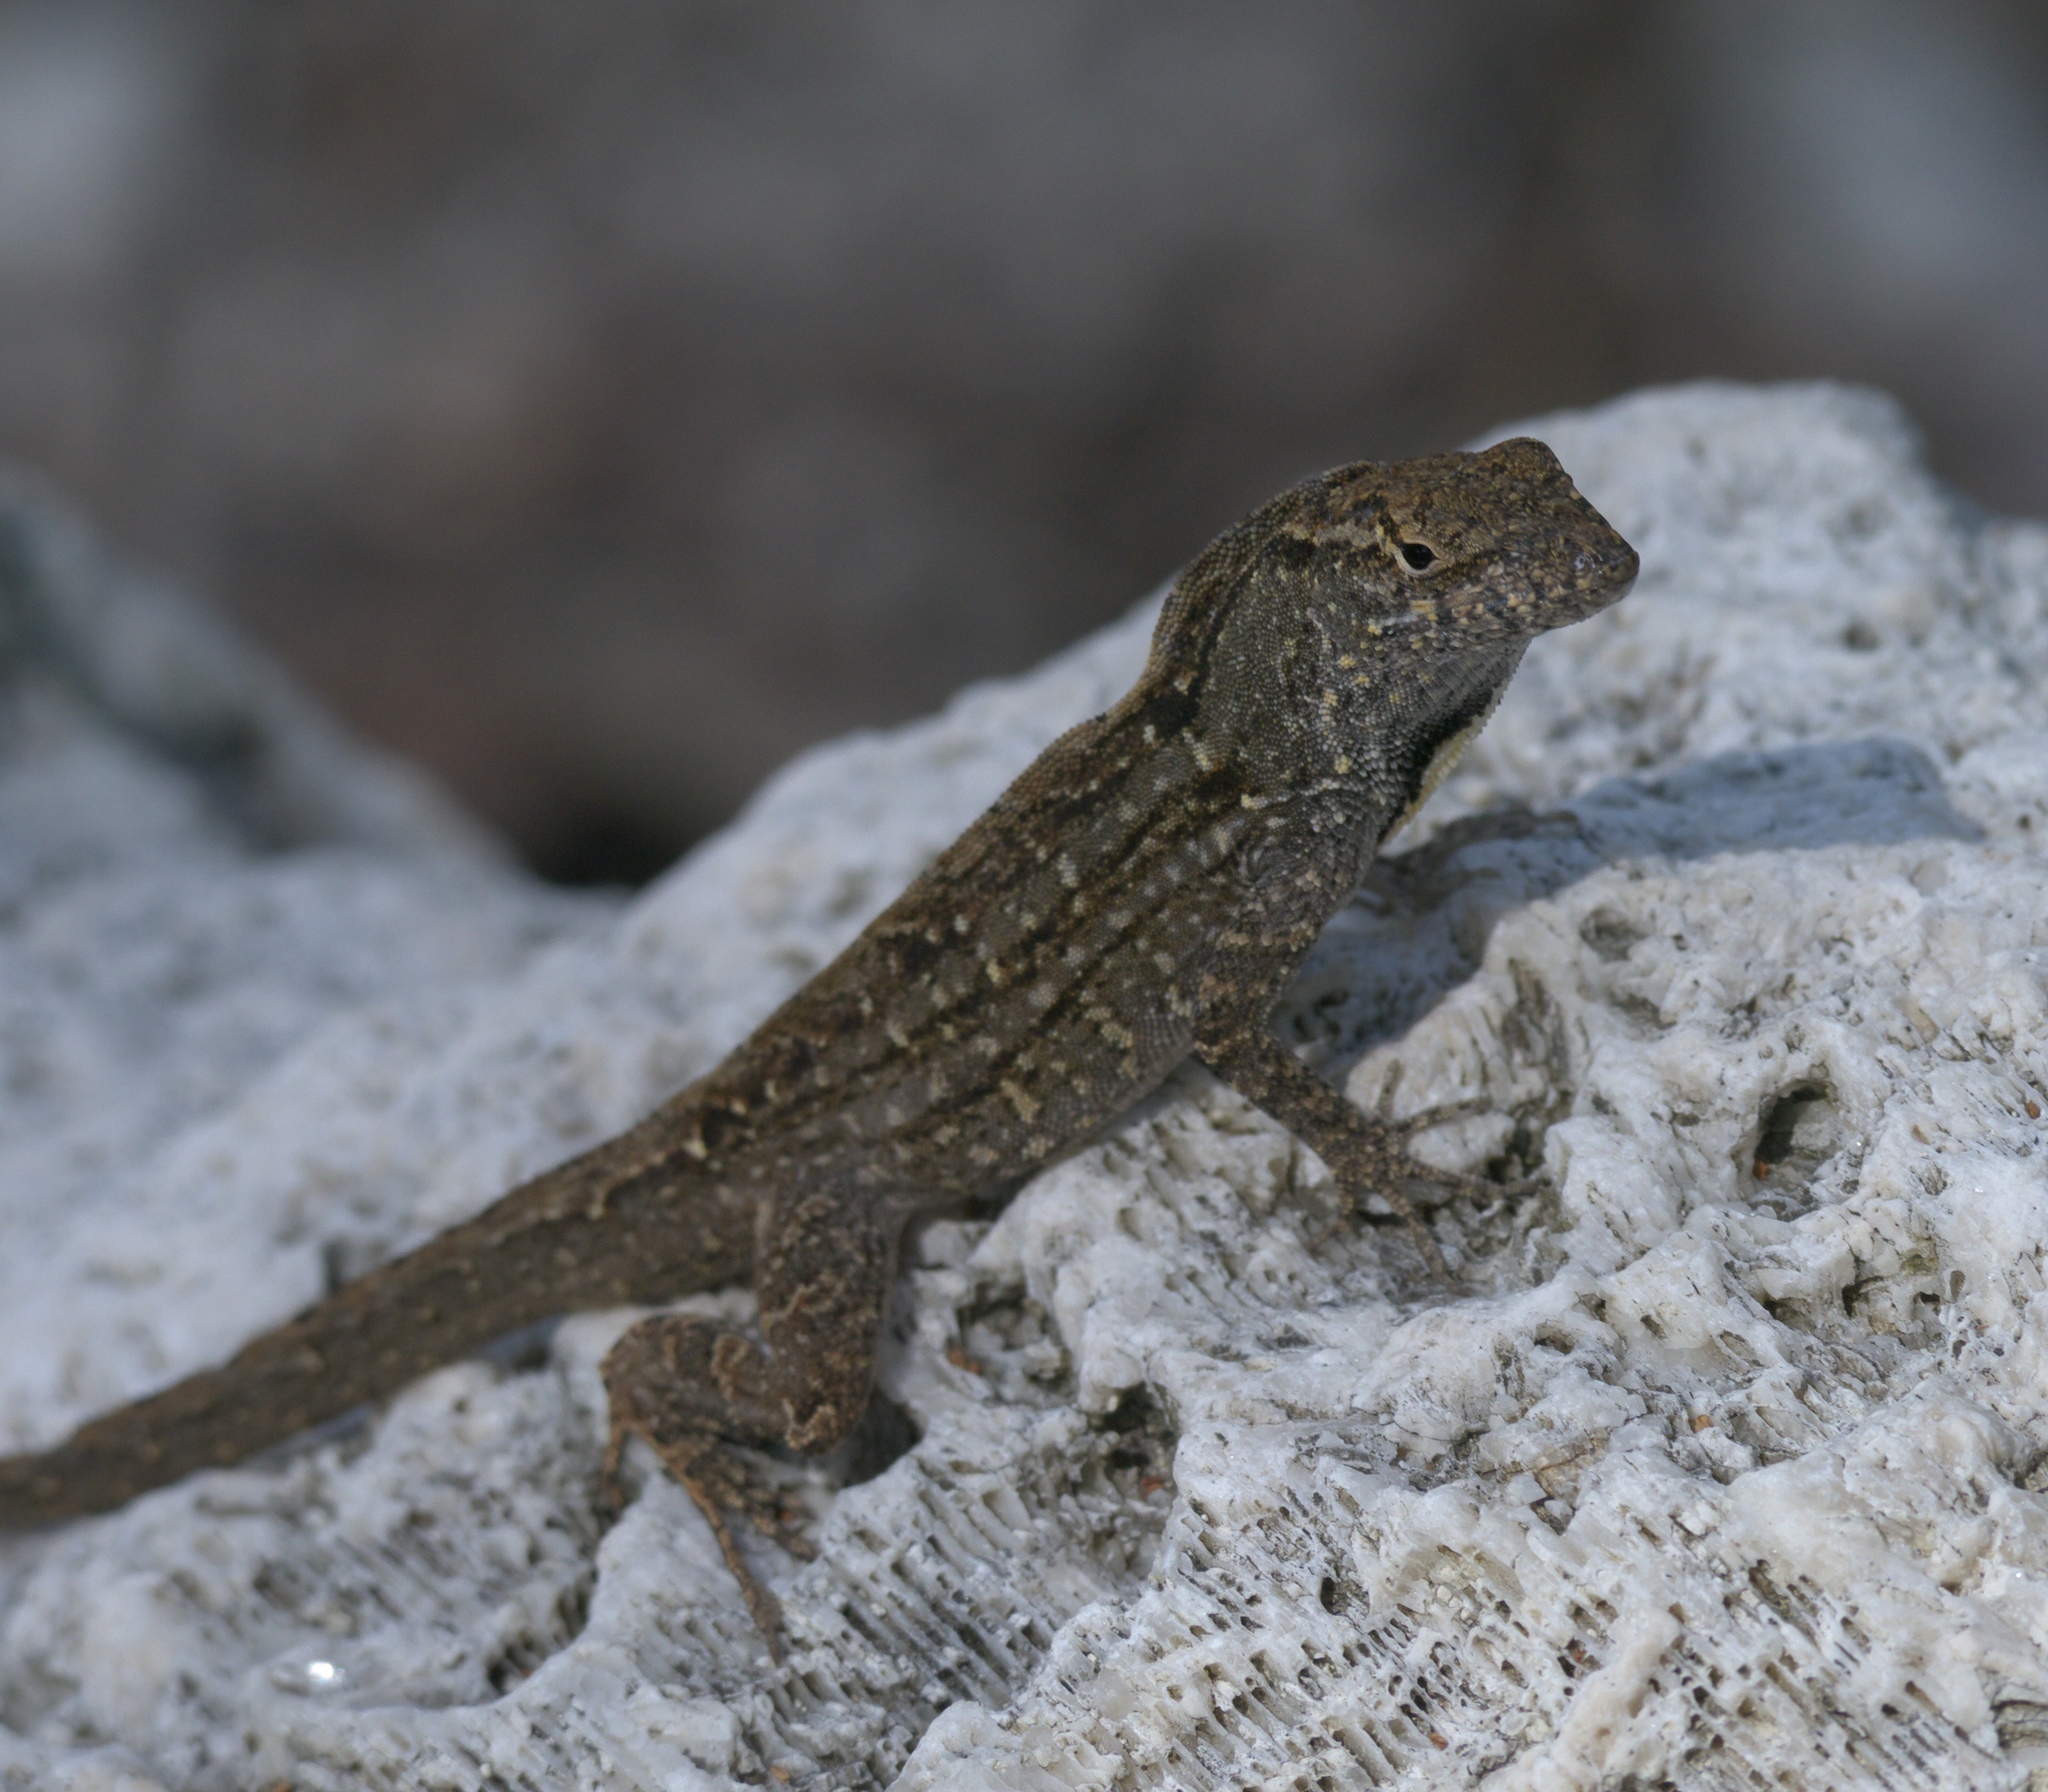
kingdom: Animalia
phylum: Chordata
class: Squamata
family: Dactyloidae
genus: Anolis
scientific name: Anolis sagrei
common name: Brown anole
